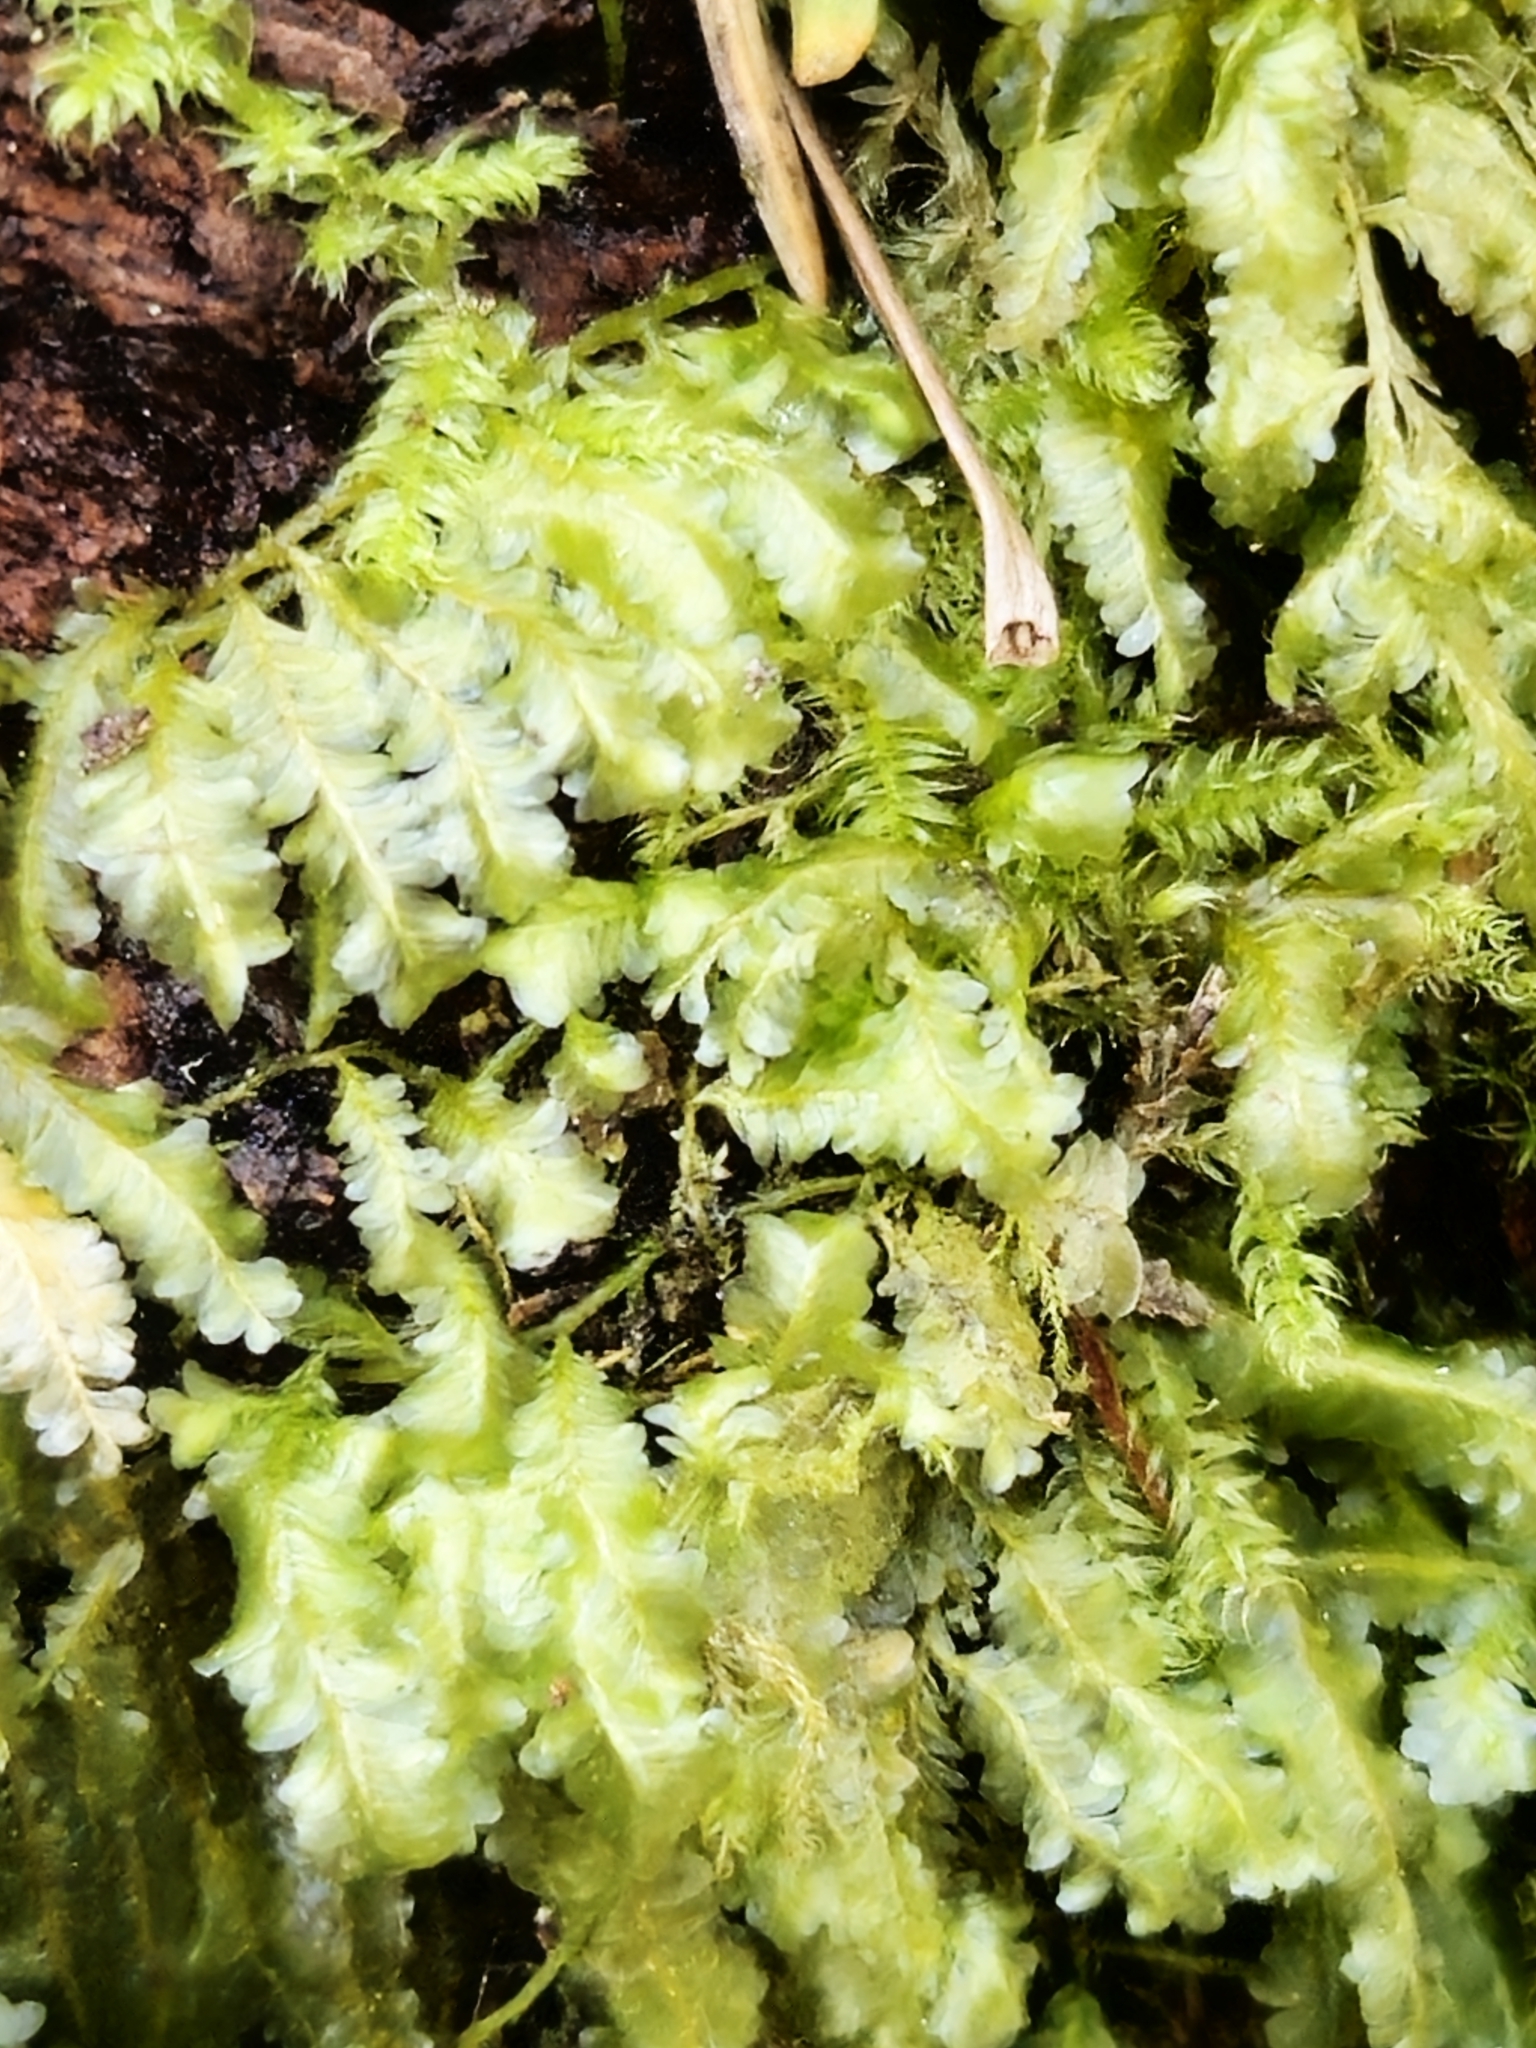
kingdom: Plantae
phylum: Bryophyta
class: Bryopsida
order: Hypnales
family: Neckeraceae
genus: Homalia
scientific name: Homalia trichomanoides
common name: Lime homalia moss
